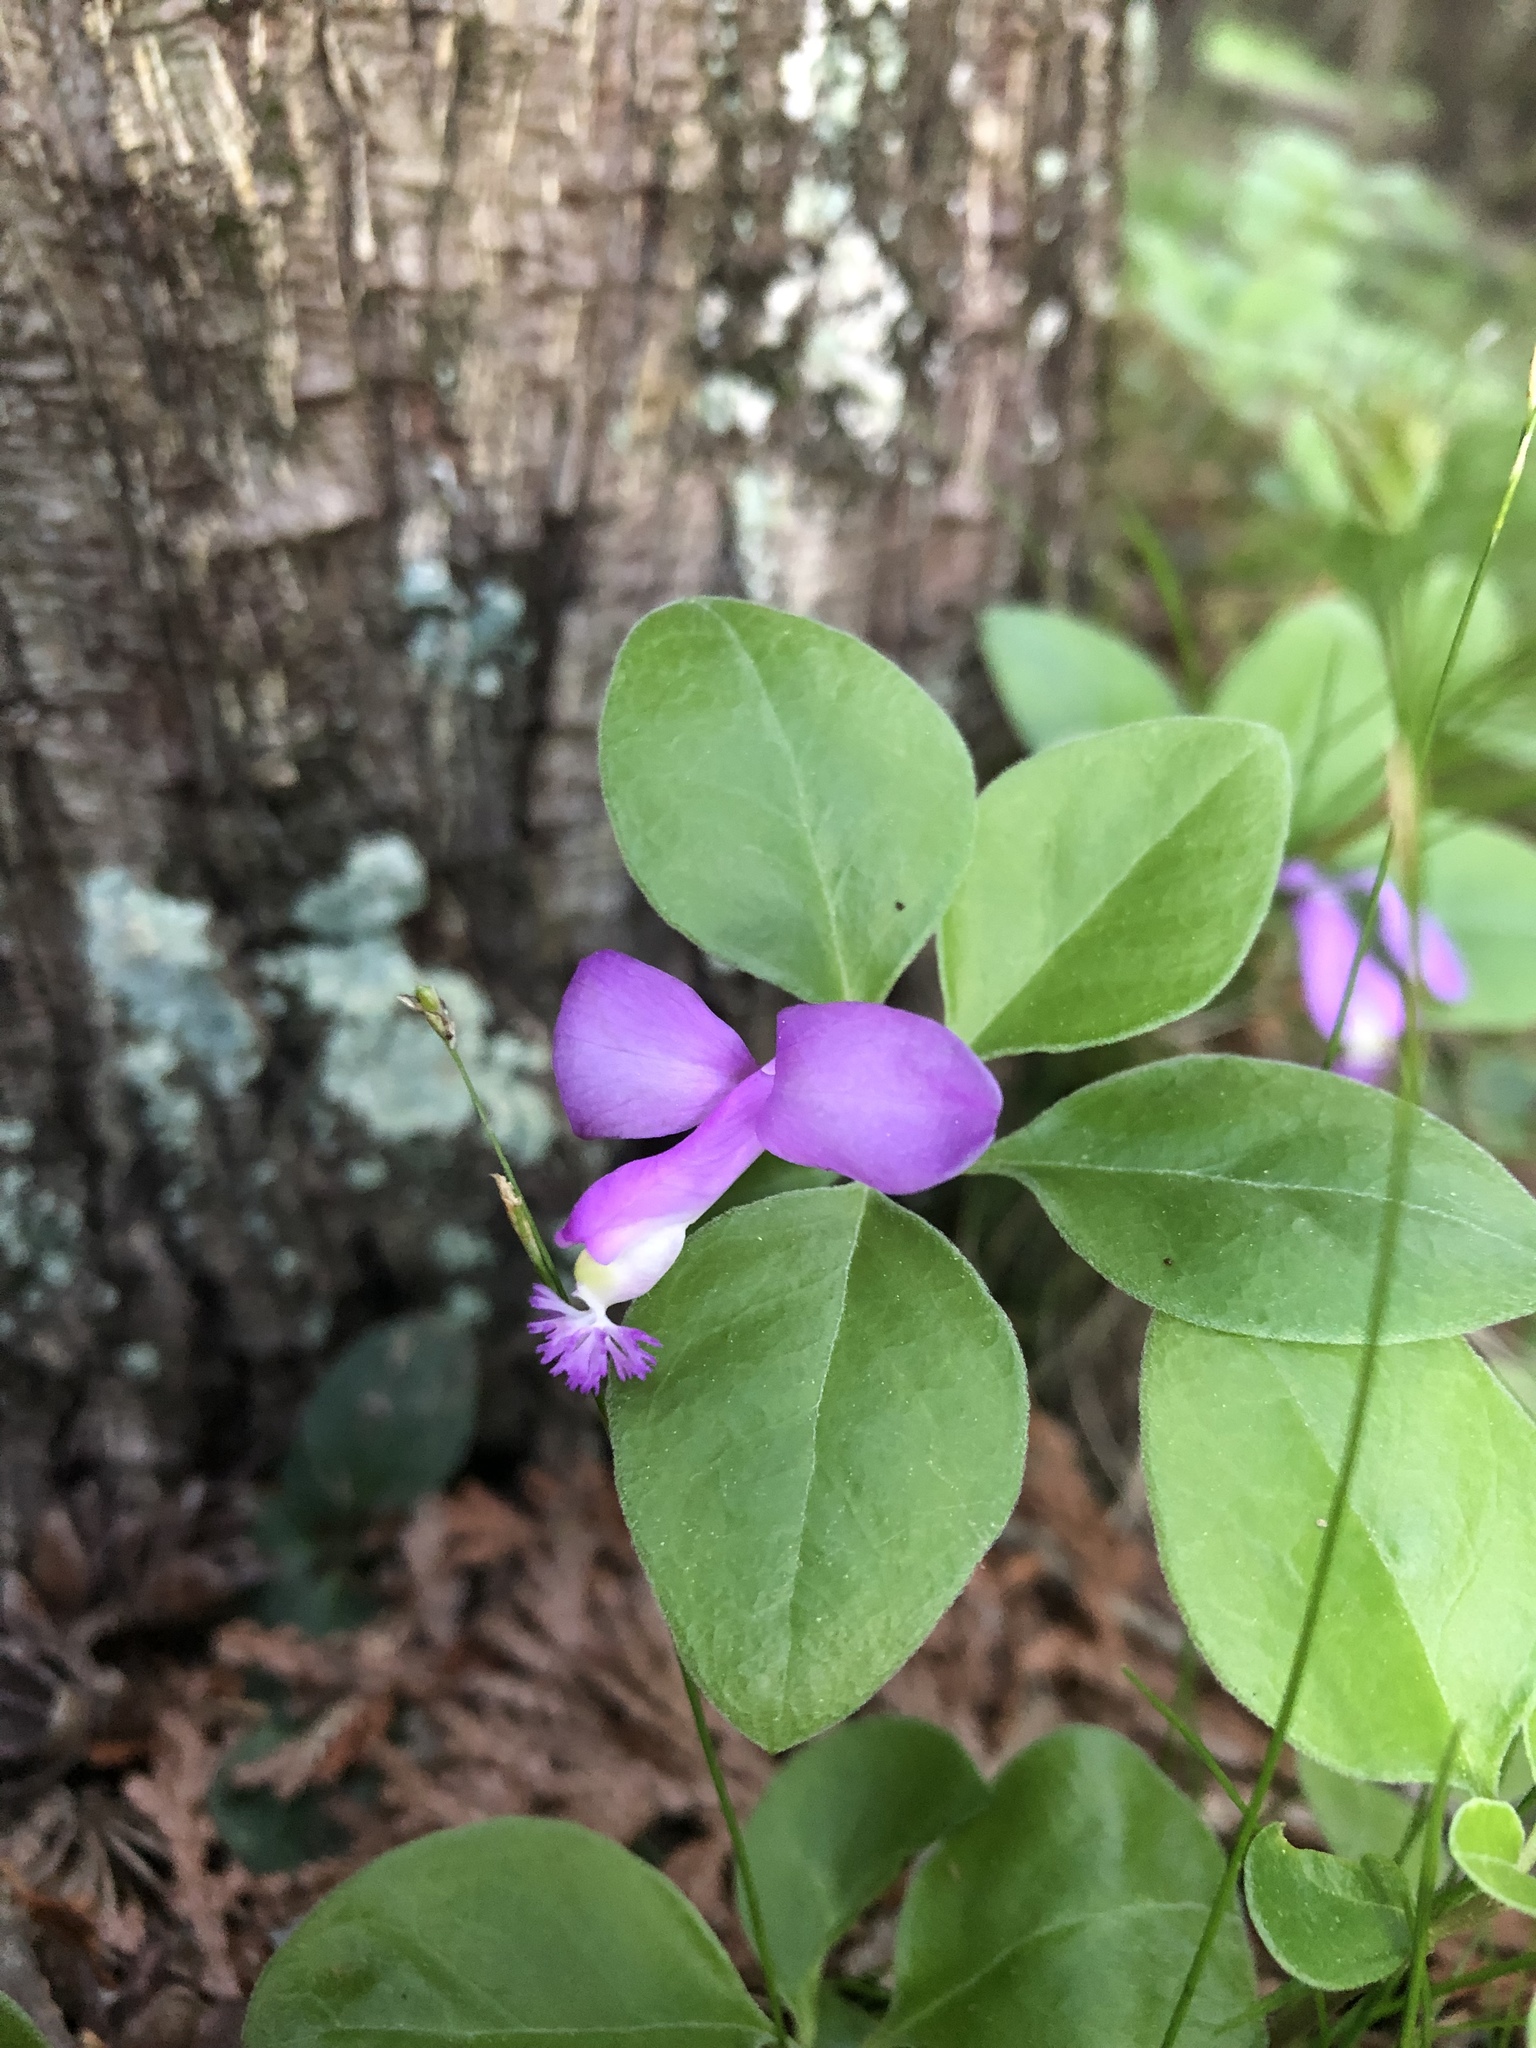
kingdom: Plantae
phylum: Tracheophyta
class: Magnoliopsida
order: Fabales
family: Polygalaceae
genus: Polygaloides
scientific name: Polygaloides paucifolia
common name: Bird-on-the-wing
